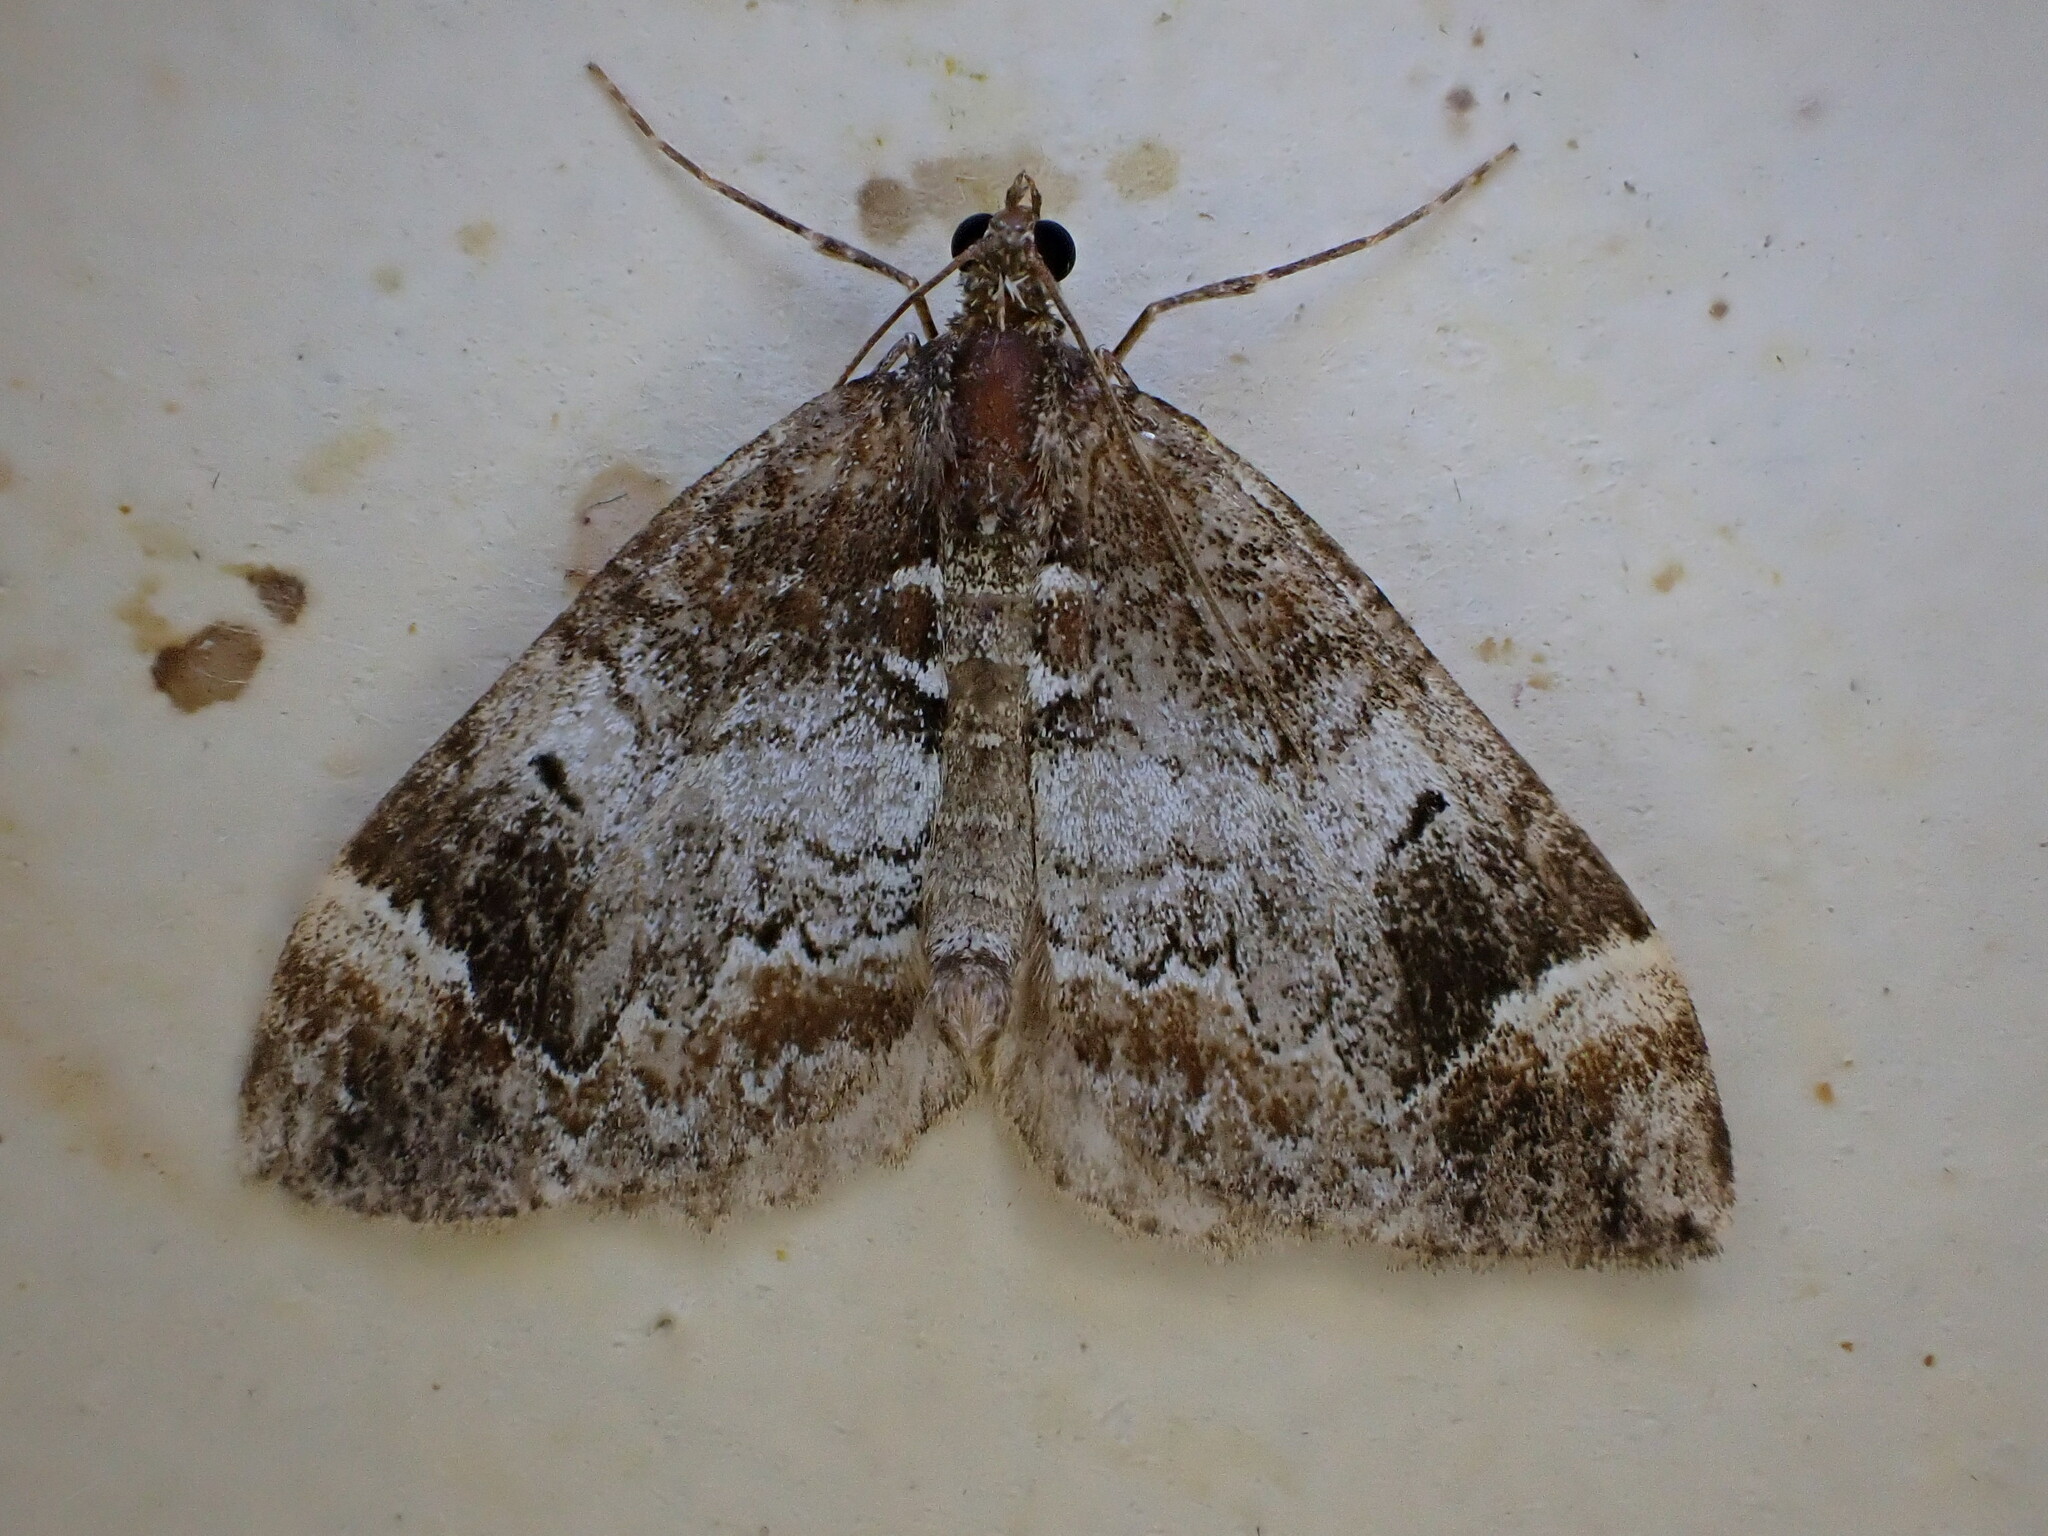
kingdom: Animalia
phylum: Arthropoda
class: Insecta
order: Lepidoptera
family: Geometridae
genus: Dysstroma
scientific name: Dysstroma truncata
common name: Common marbled carpet
